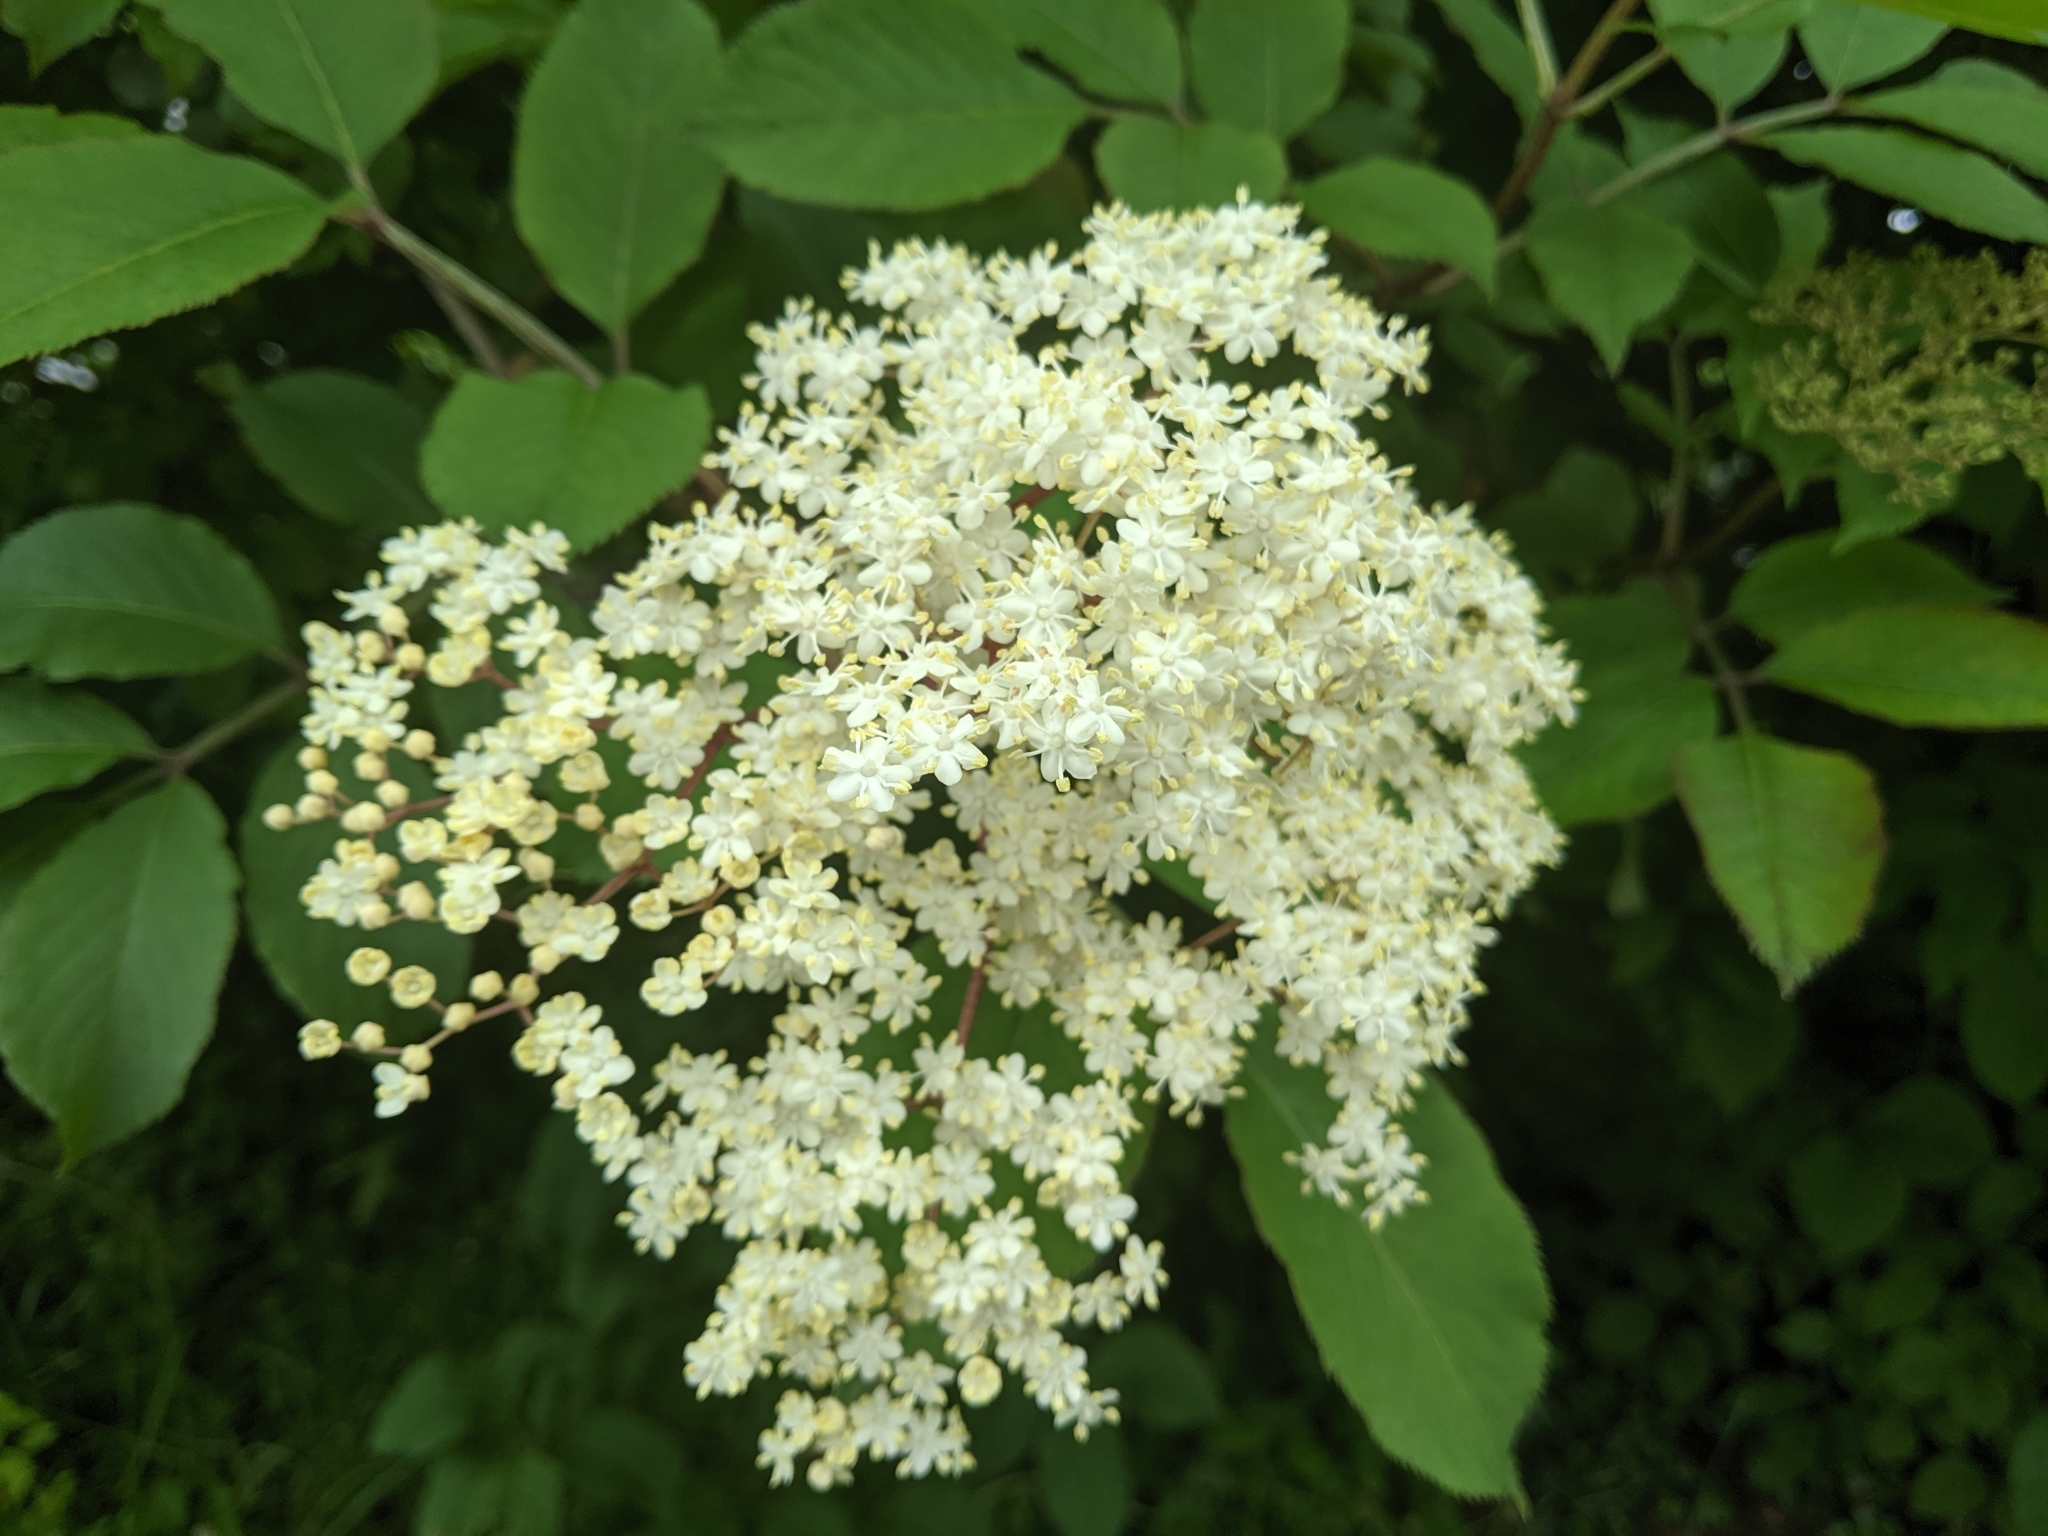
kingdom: Plantae
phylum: Tracheophyta
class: Magnoliopsida
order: Dipsacales
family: Viburnaceae
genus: Sambucus
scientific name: Sambucus nigra
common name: Elder
